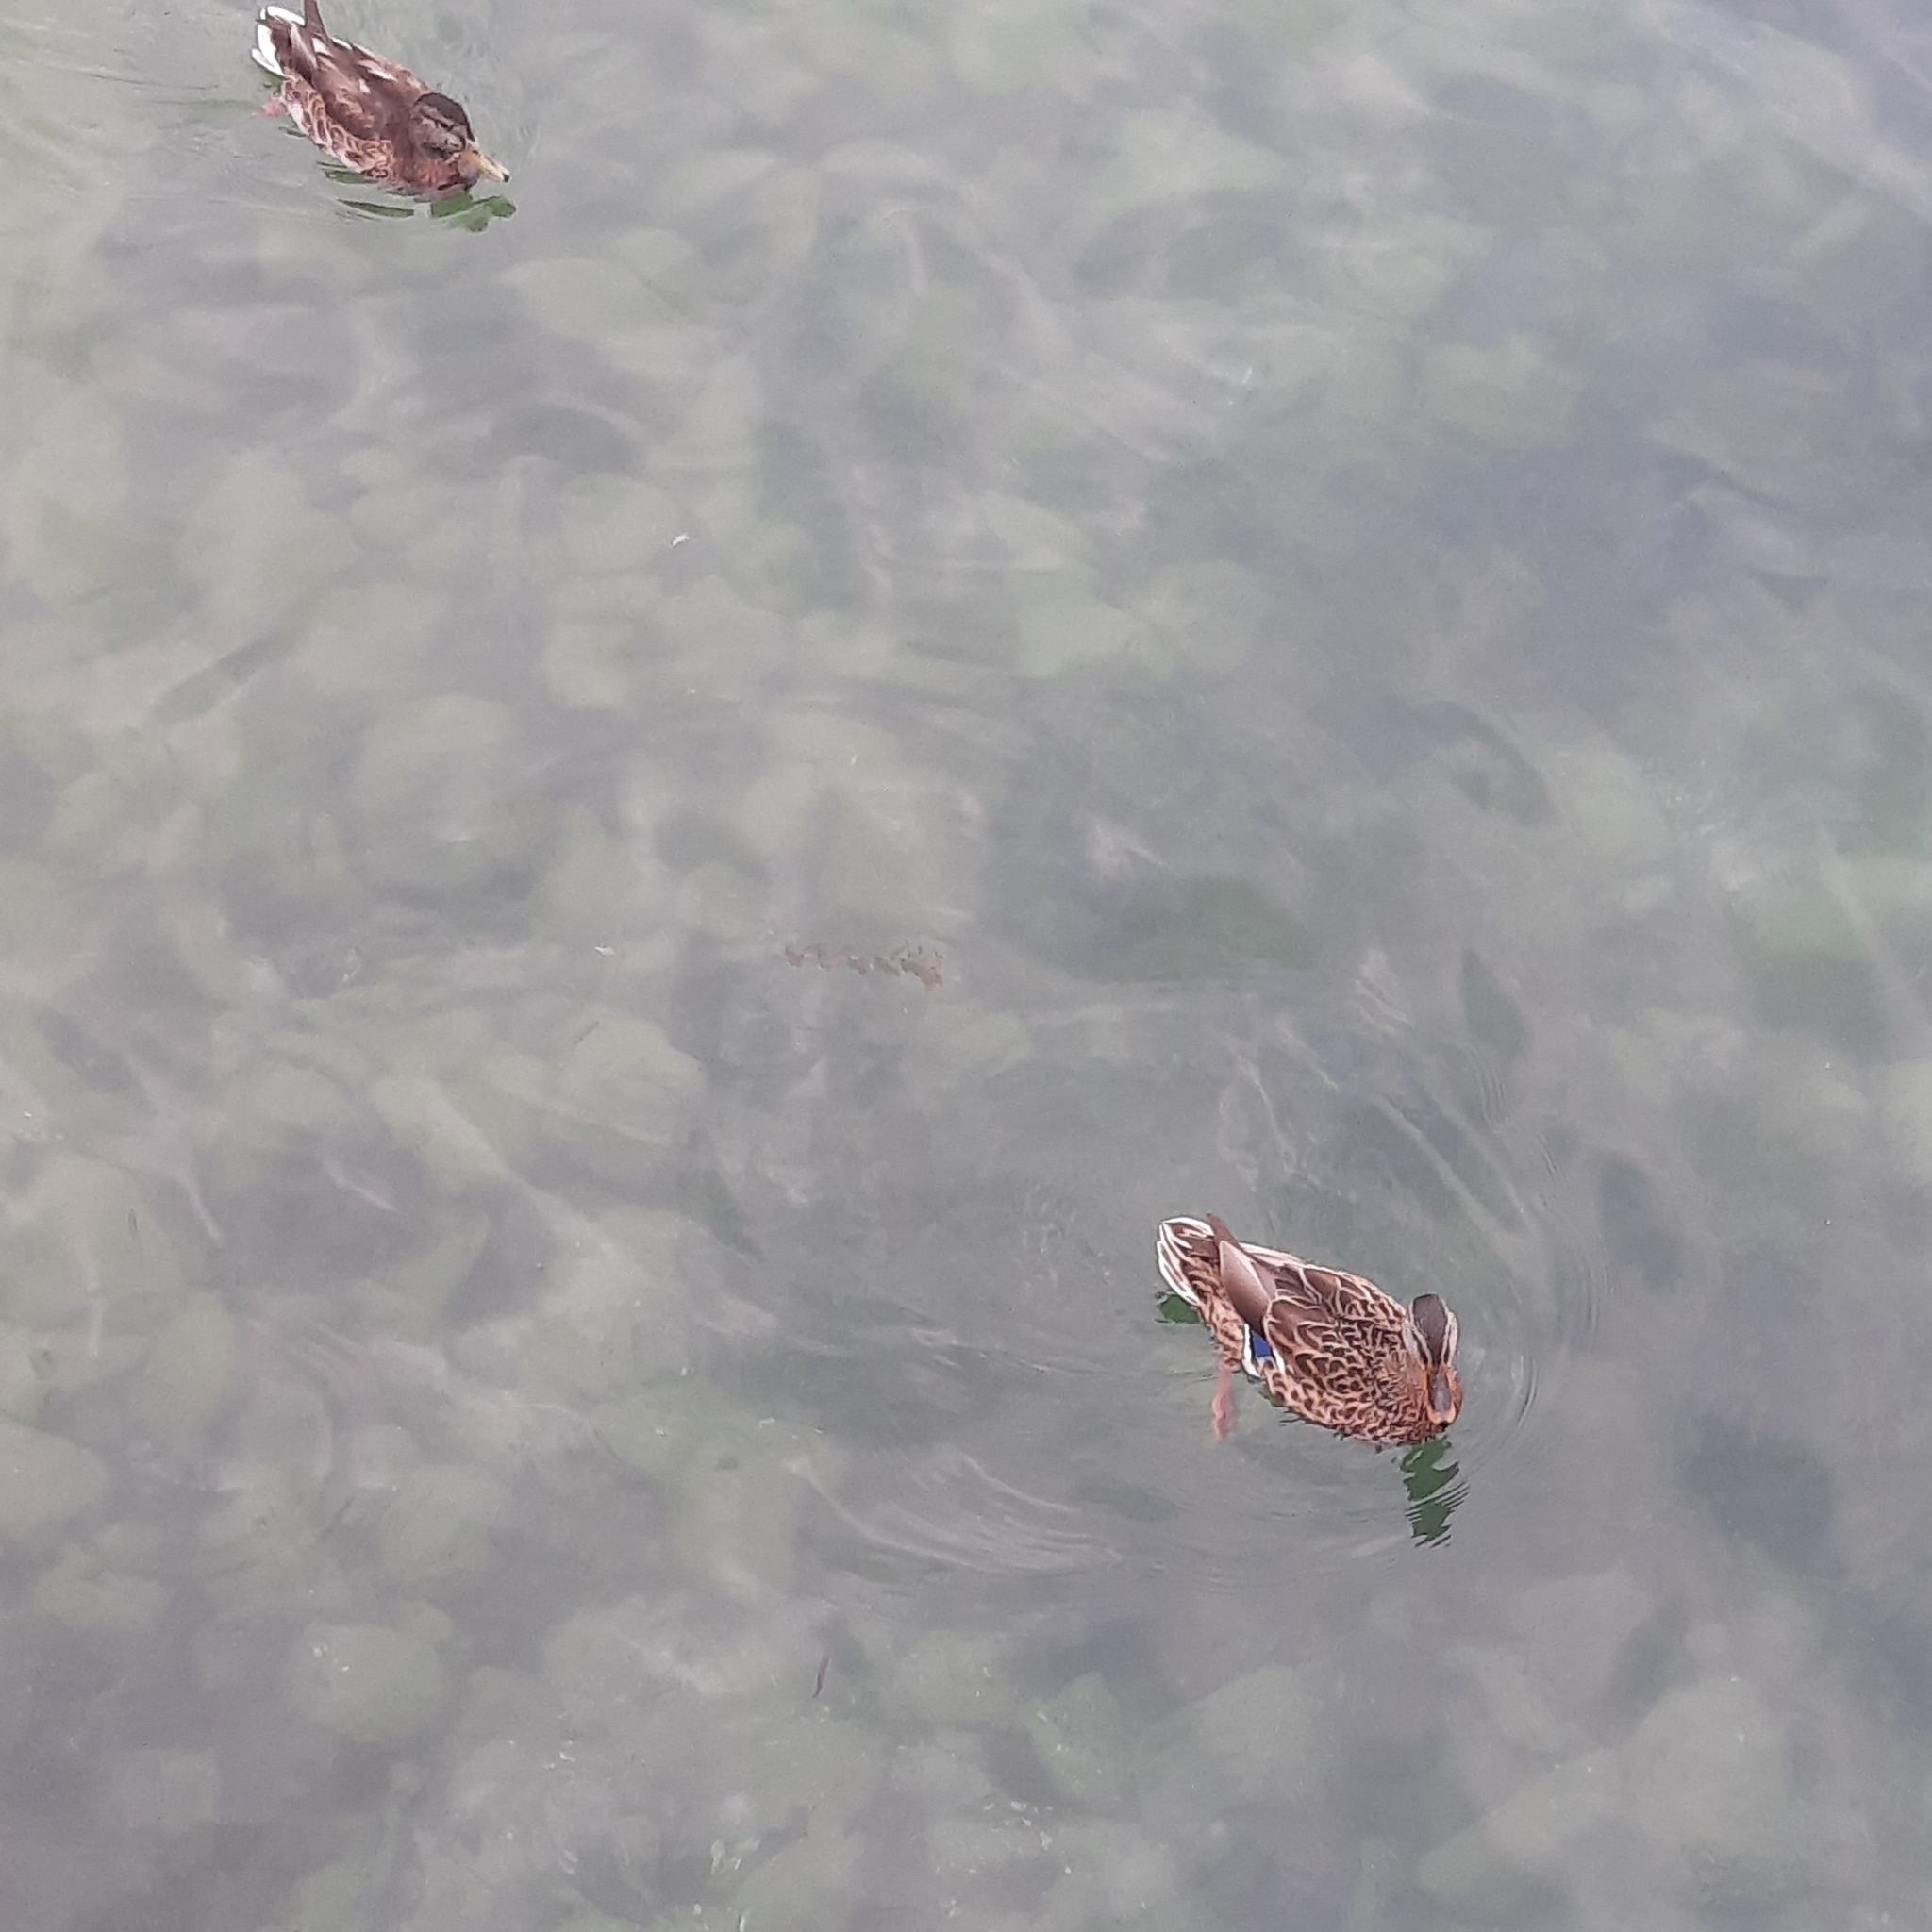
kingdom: Animalia
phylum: Chordata
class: Aves
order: Anseriformes
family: Anatidae
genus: Anas
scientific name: Anas platyrhynchos
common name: Mallard
